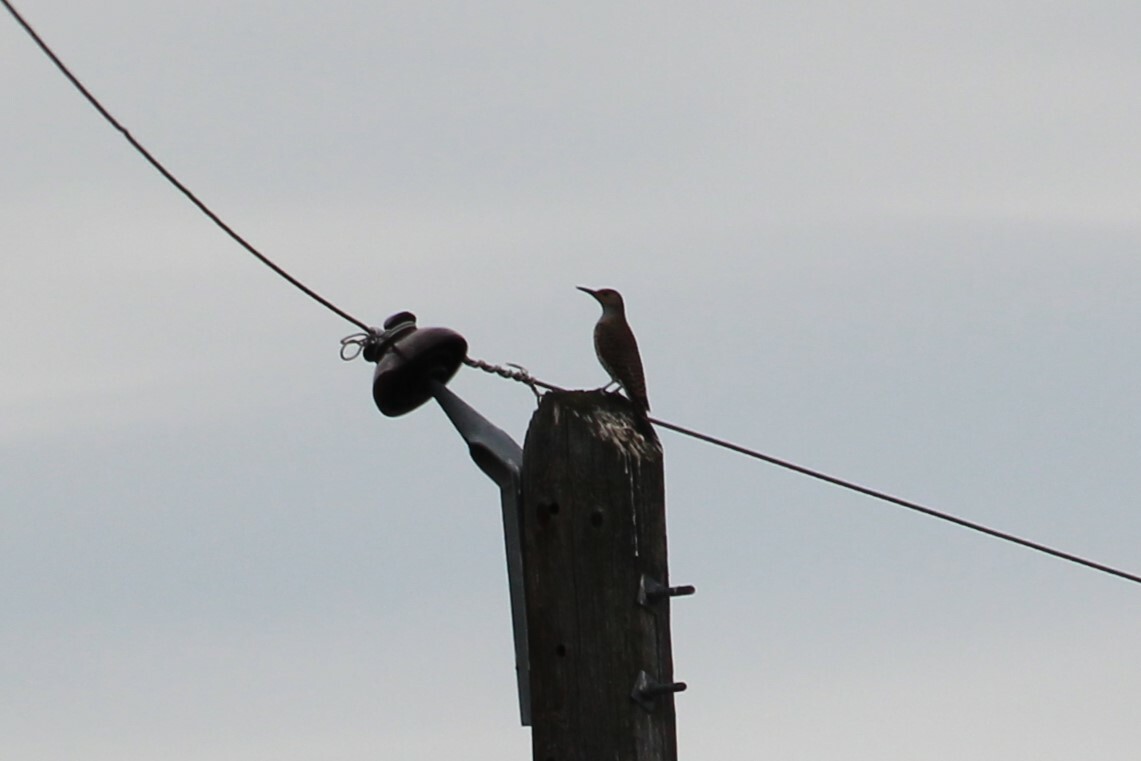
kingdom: Animalia
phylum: Chordata
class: Aves
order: Piciformes
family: Picidae
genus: Colaptes
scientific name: Colaptes auratus
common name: Northern flicker
